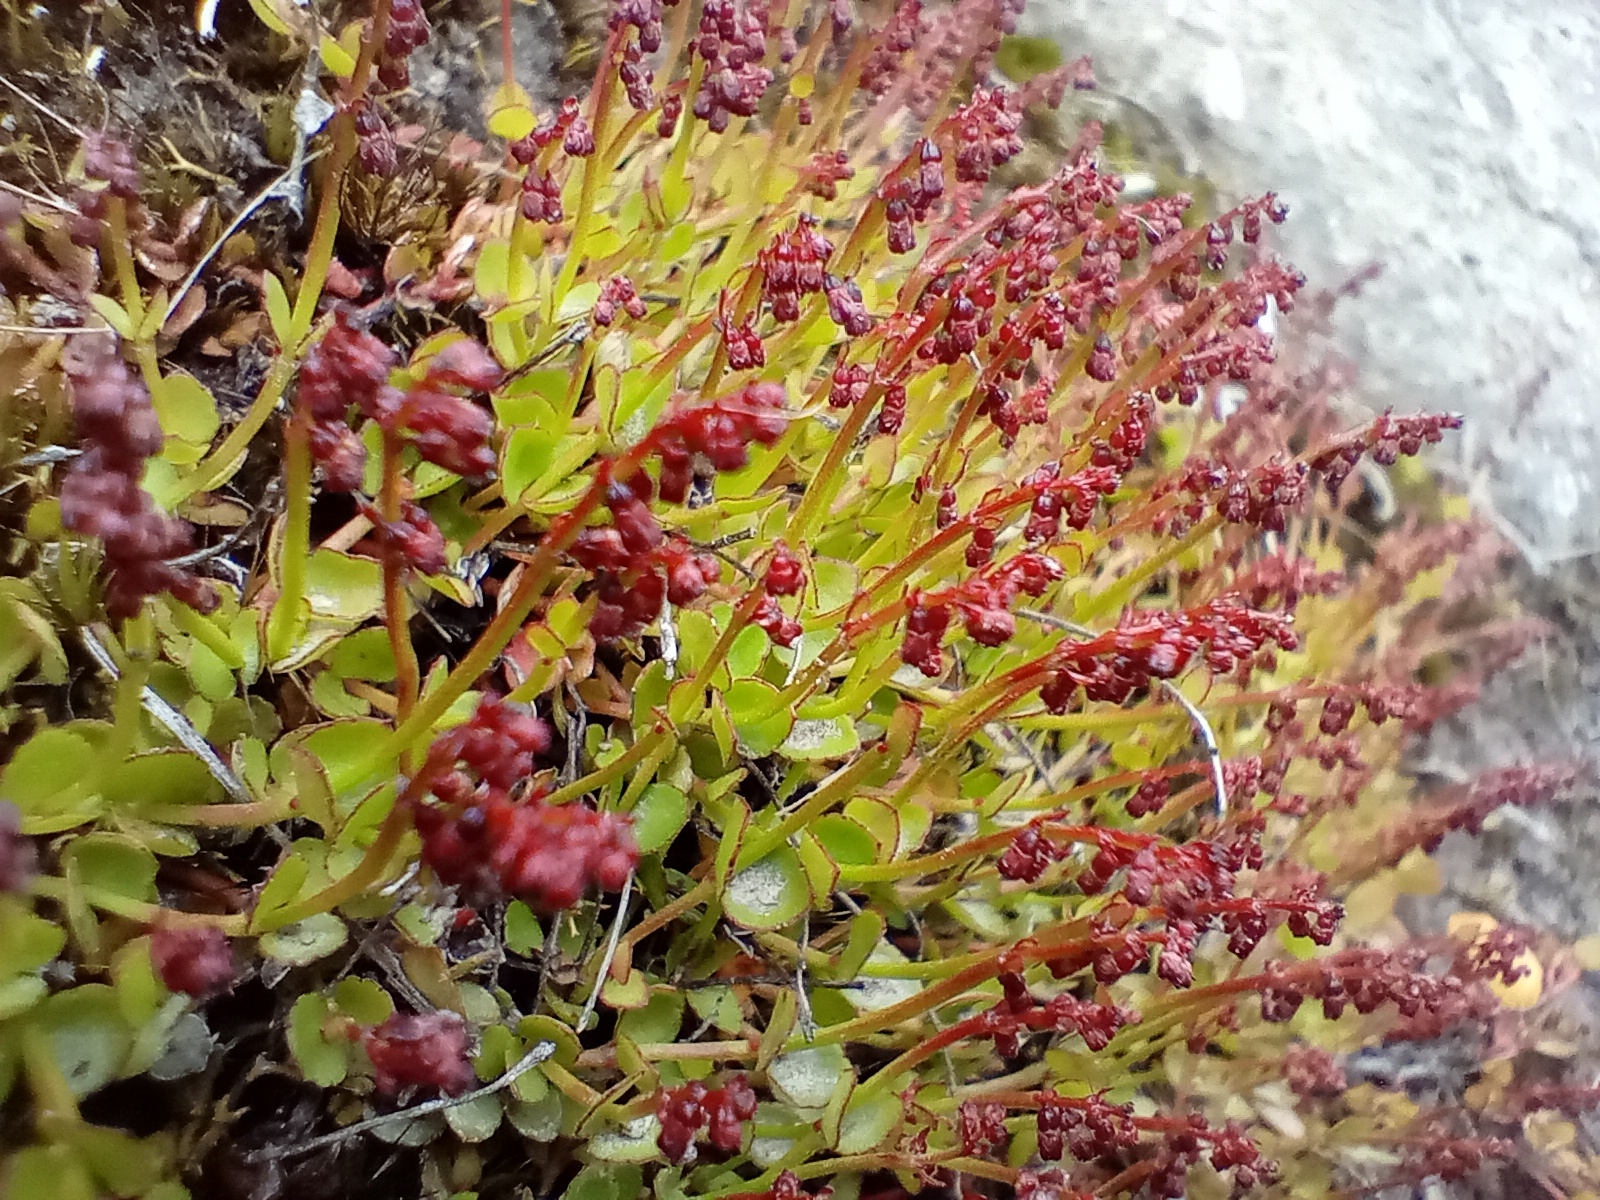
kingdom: Plantae
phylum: Tracheophyta
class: Magnoliopsida
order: Saxifragales
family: Haloragaceae
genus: Gonocarpus
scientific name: Gonocarpus micranthus
